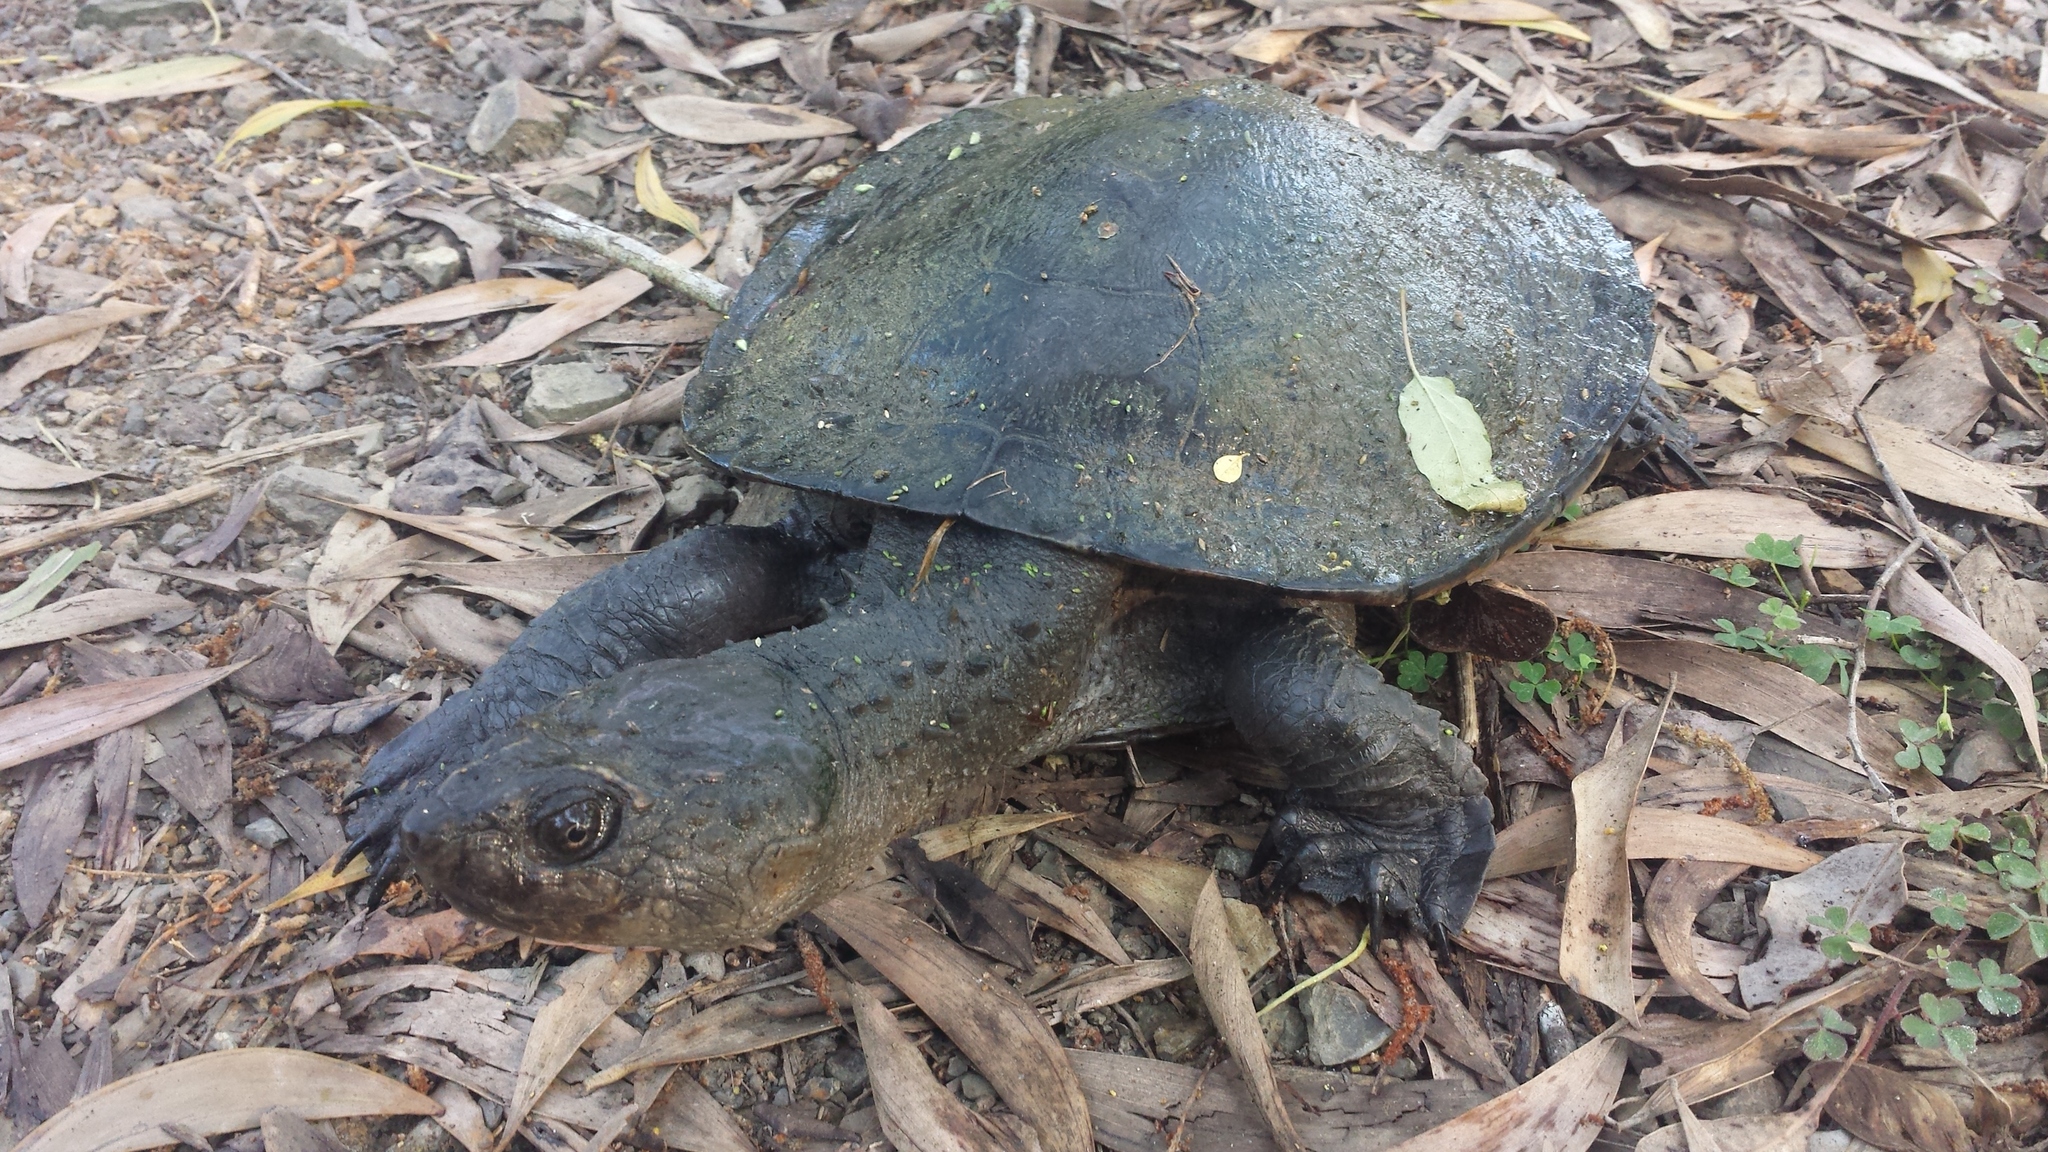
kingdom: Animalia
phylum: Chordata
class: Testudines
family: Chelidae
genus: Myuchelys
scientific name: Myuchelys latisternum
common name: Serrated snapping turtle
